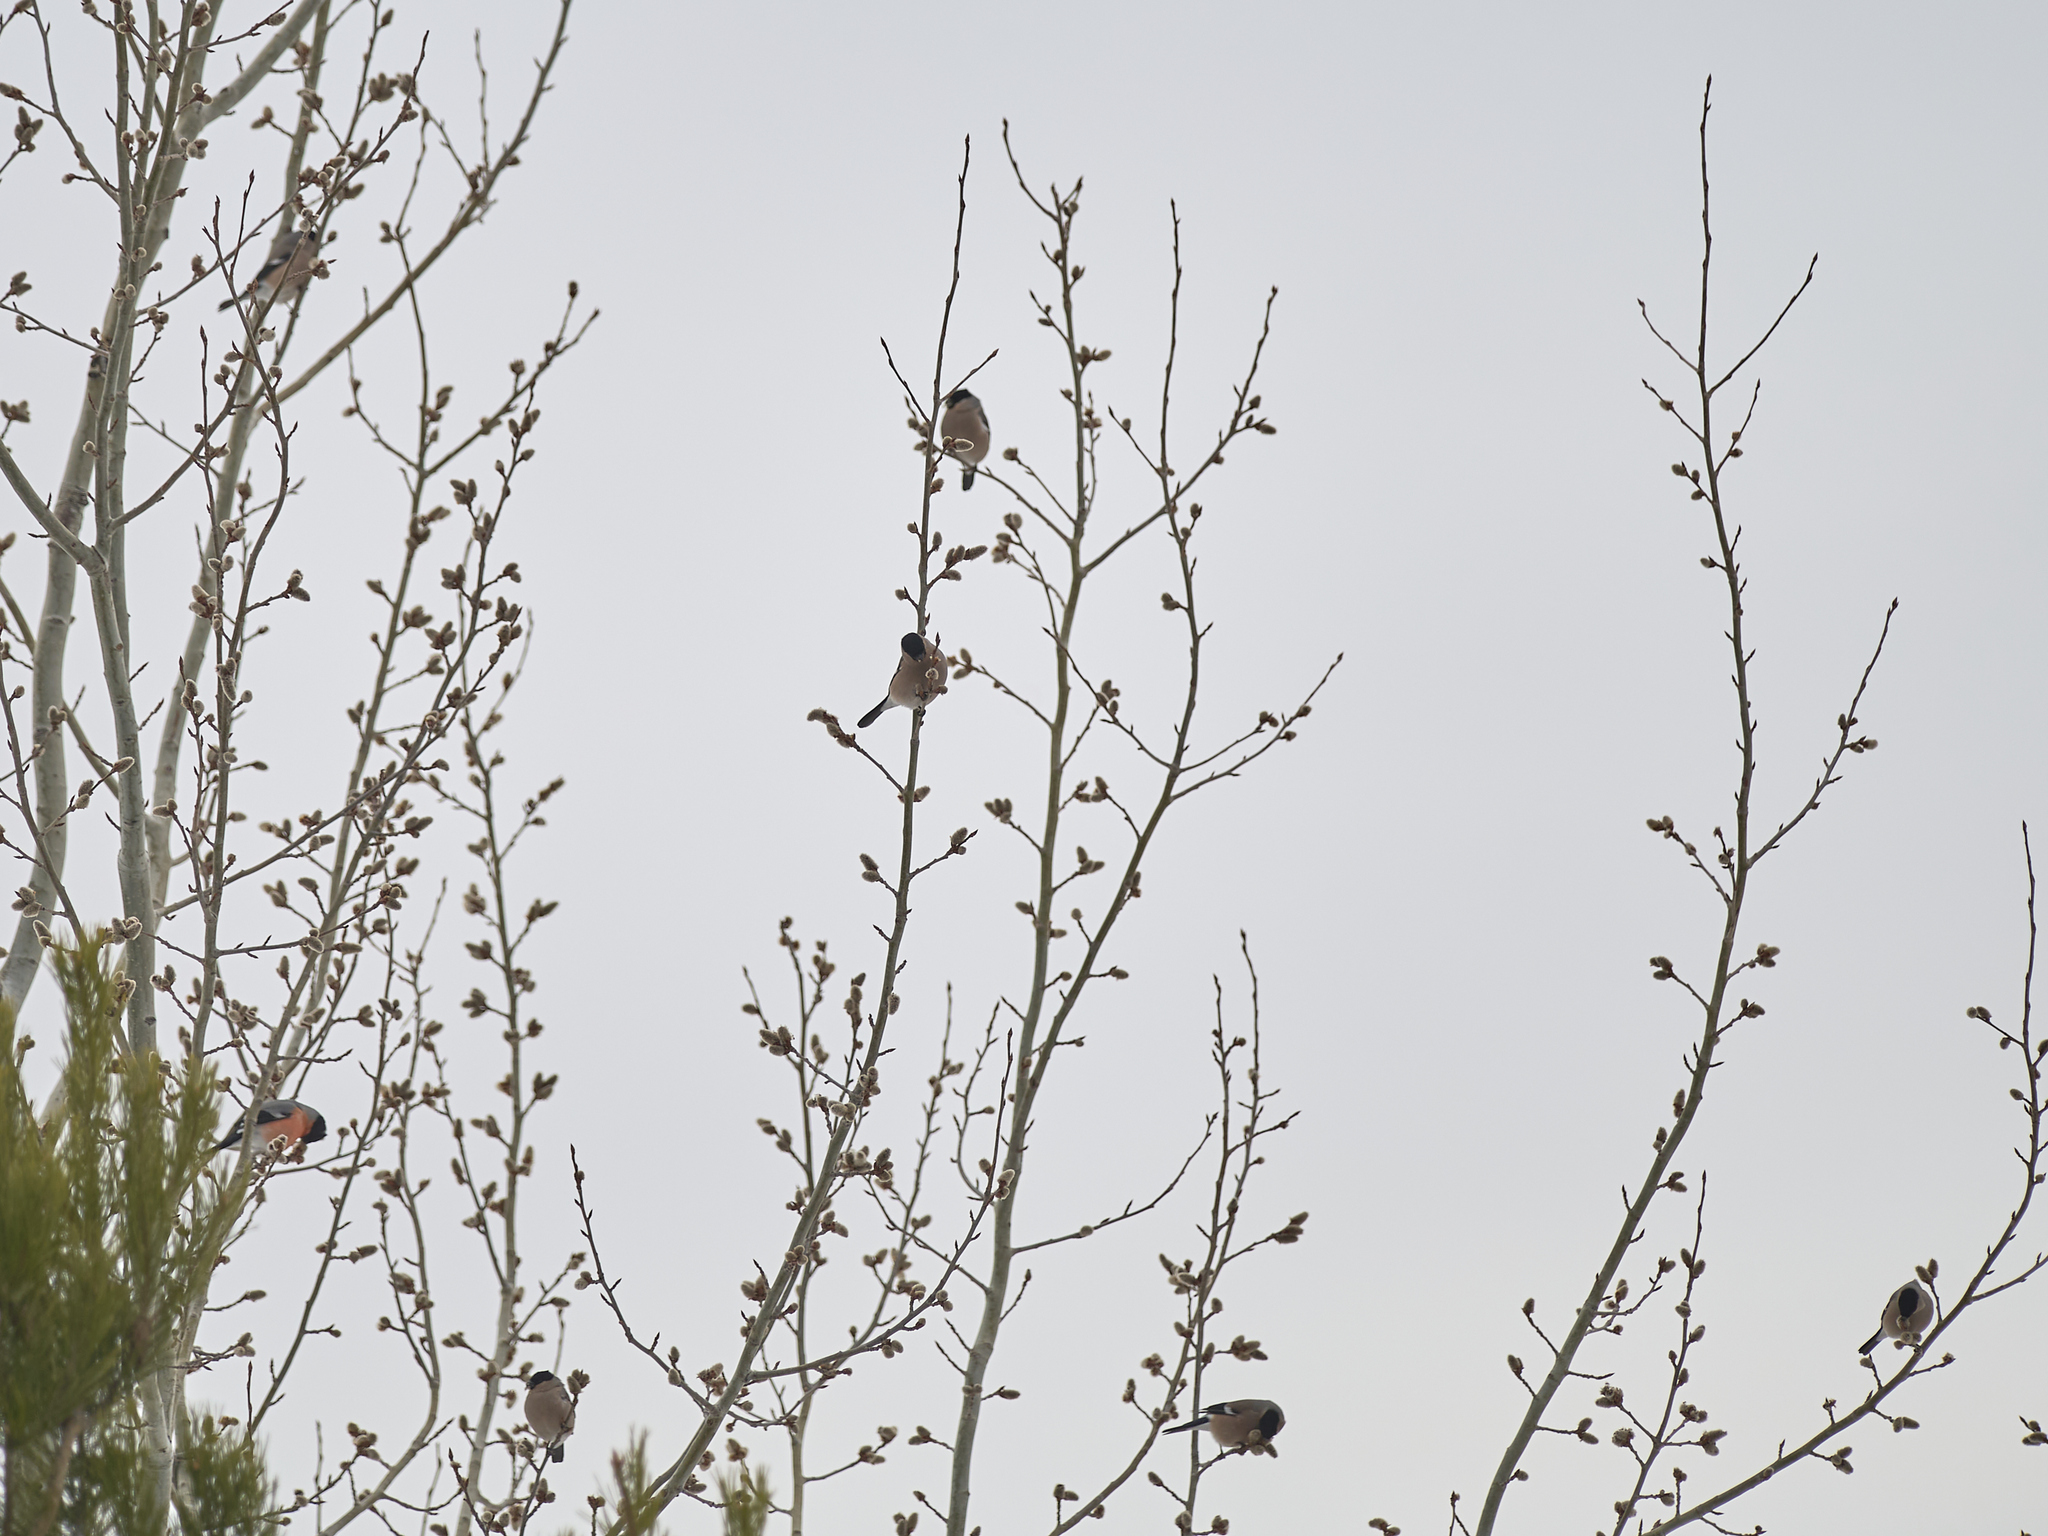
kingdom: Animalia
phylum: Chordata
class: Aves
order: Passeriformes
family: Fringillidae
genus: Pyrrhula
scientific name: Pyrrhula pyrrhula
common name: Eurasian bullfinch
